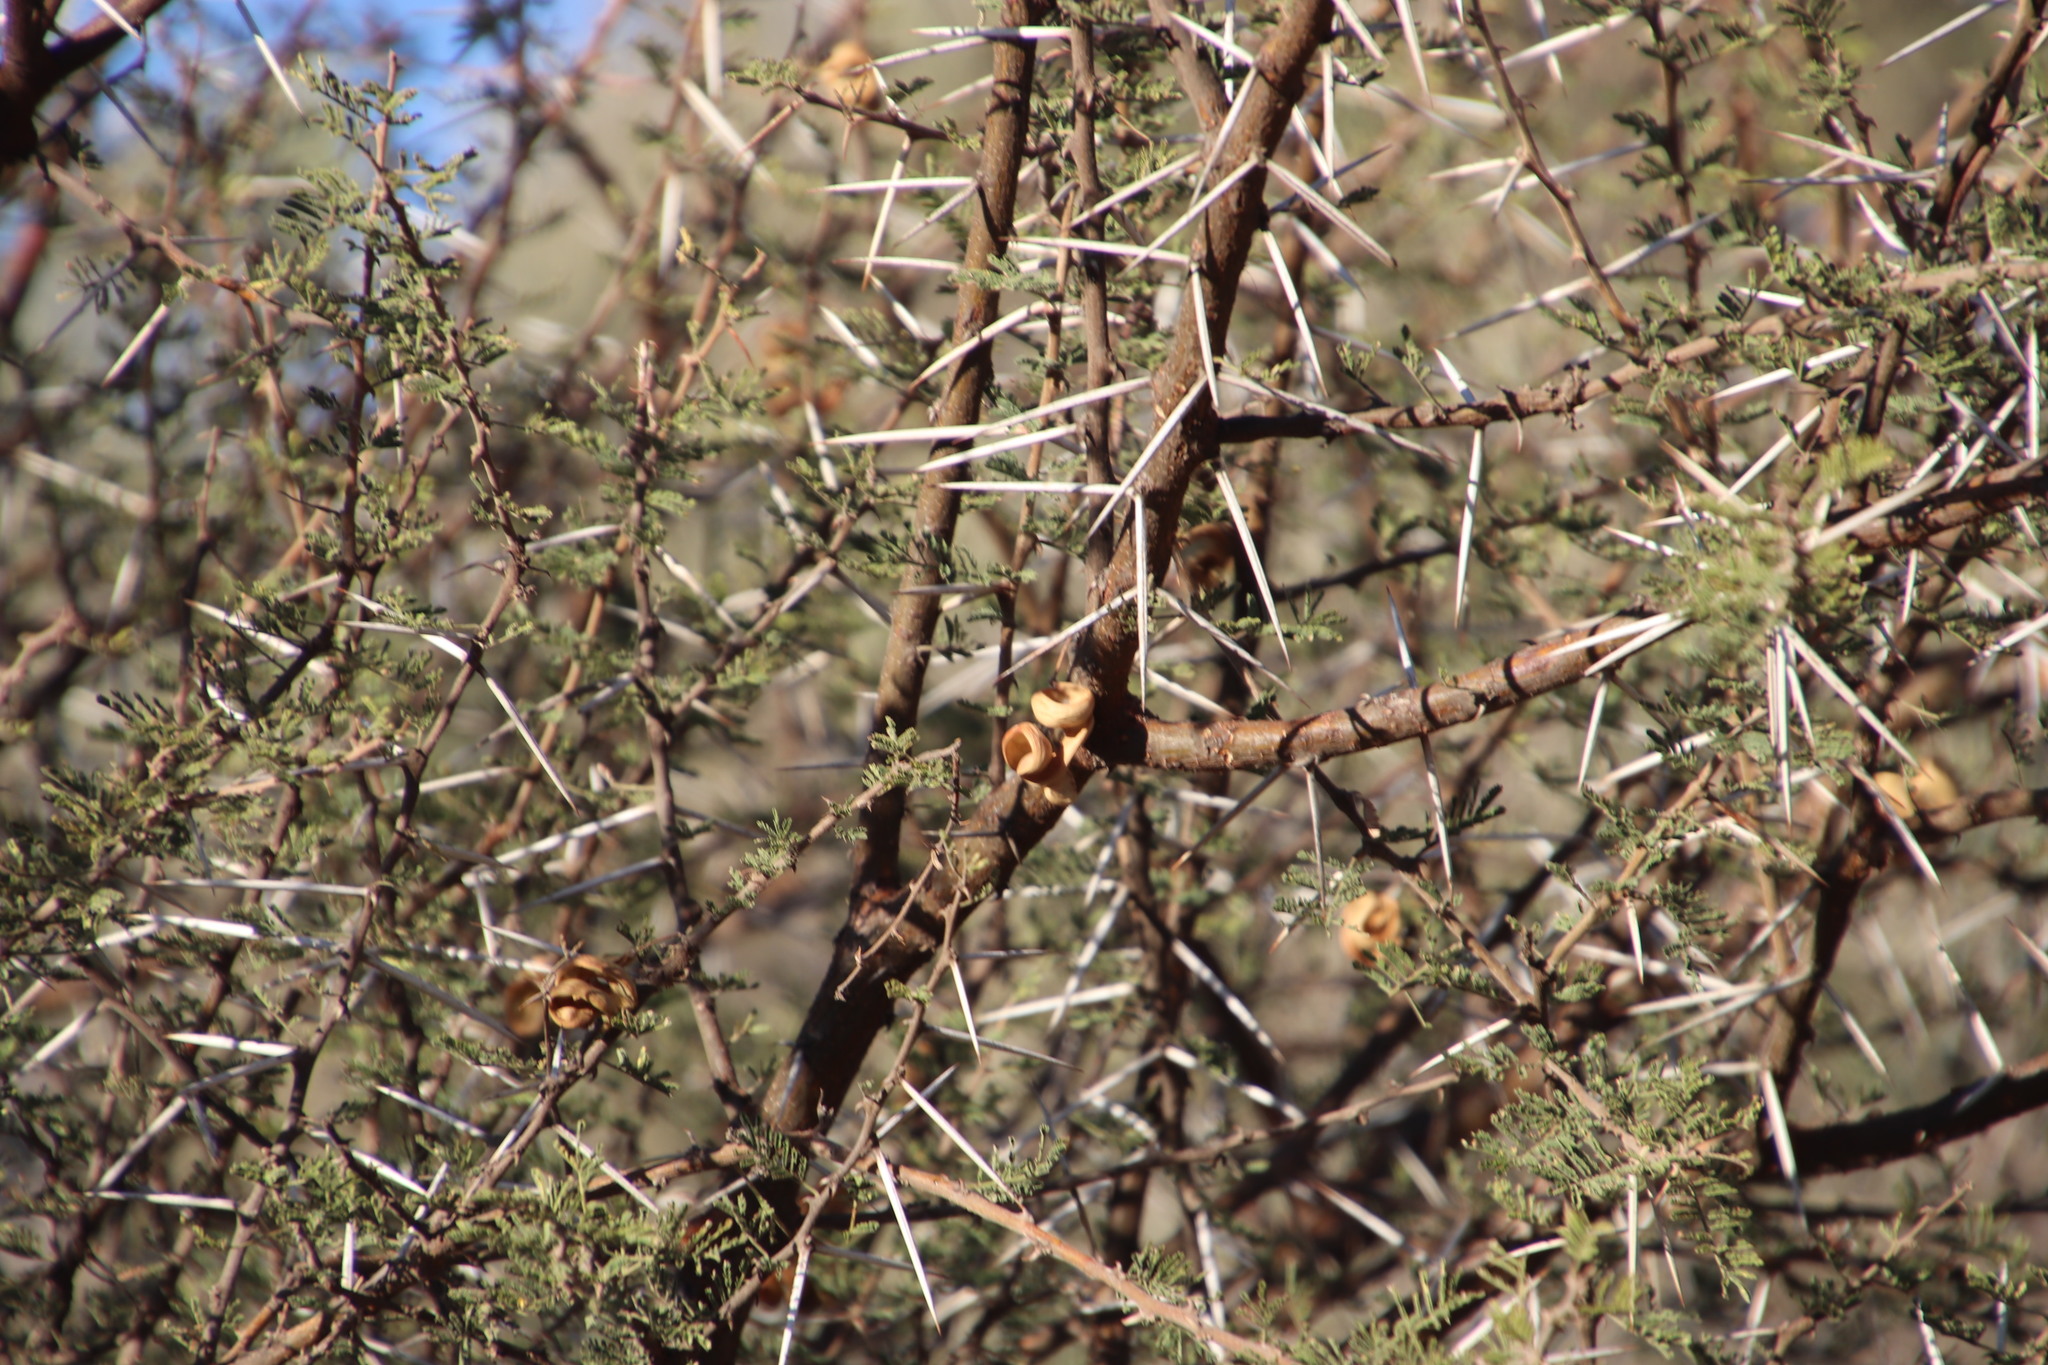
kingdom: Plantae
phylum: Tracheophyta
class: Magnoliopsida
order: Fabales
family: Fabaceae
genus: Vachellia
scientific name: Vachellia tortilis
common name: Umbrella thorn acacia
